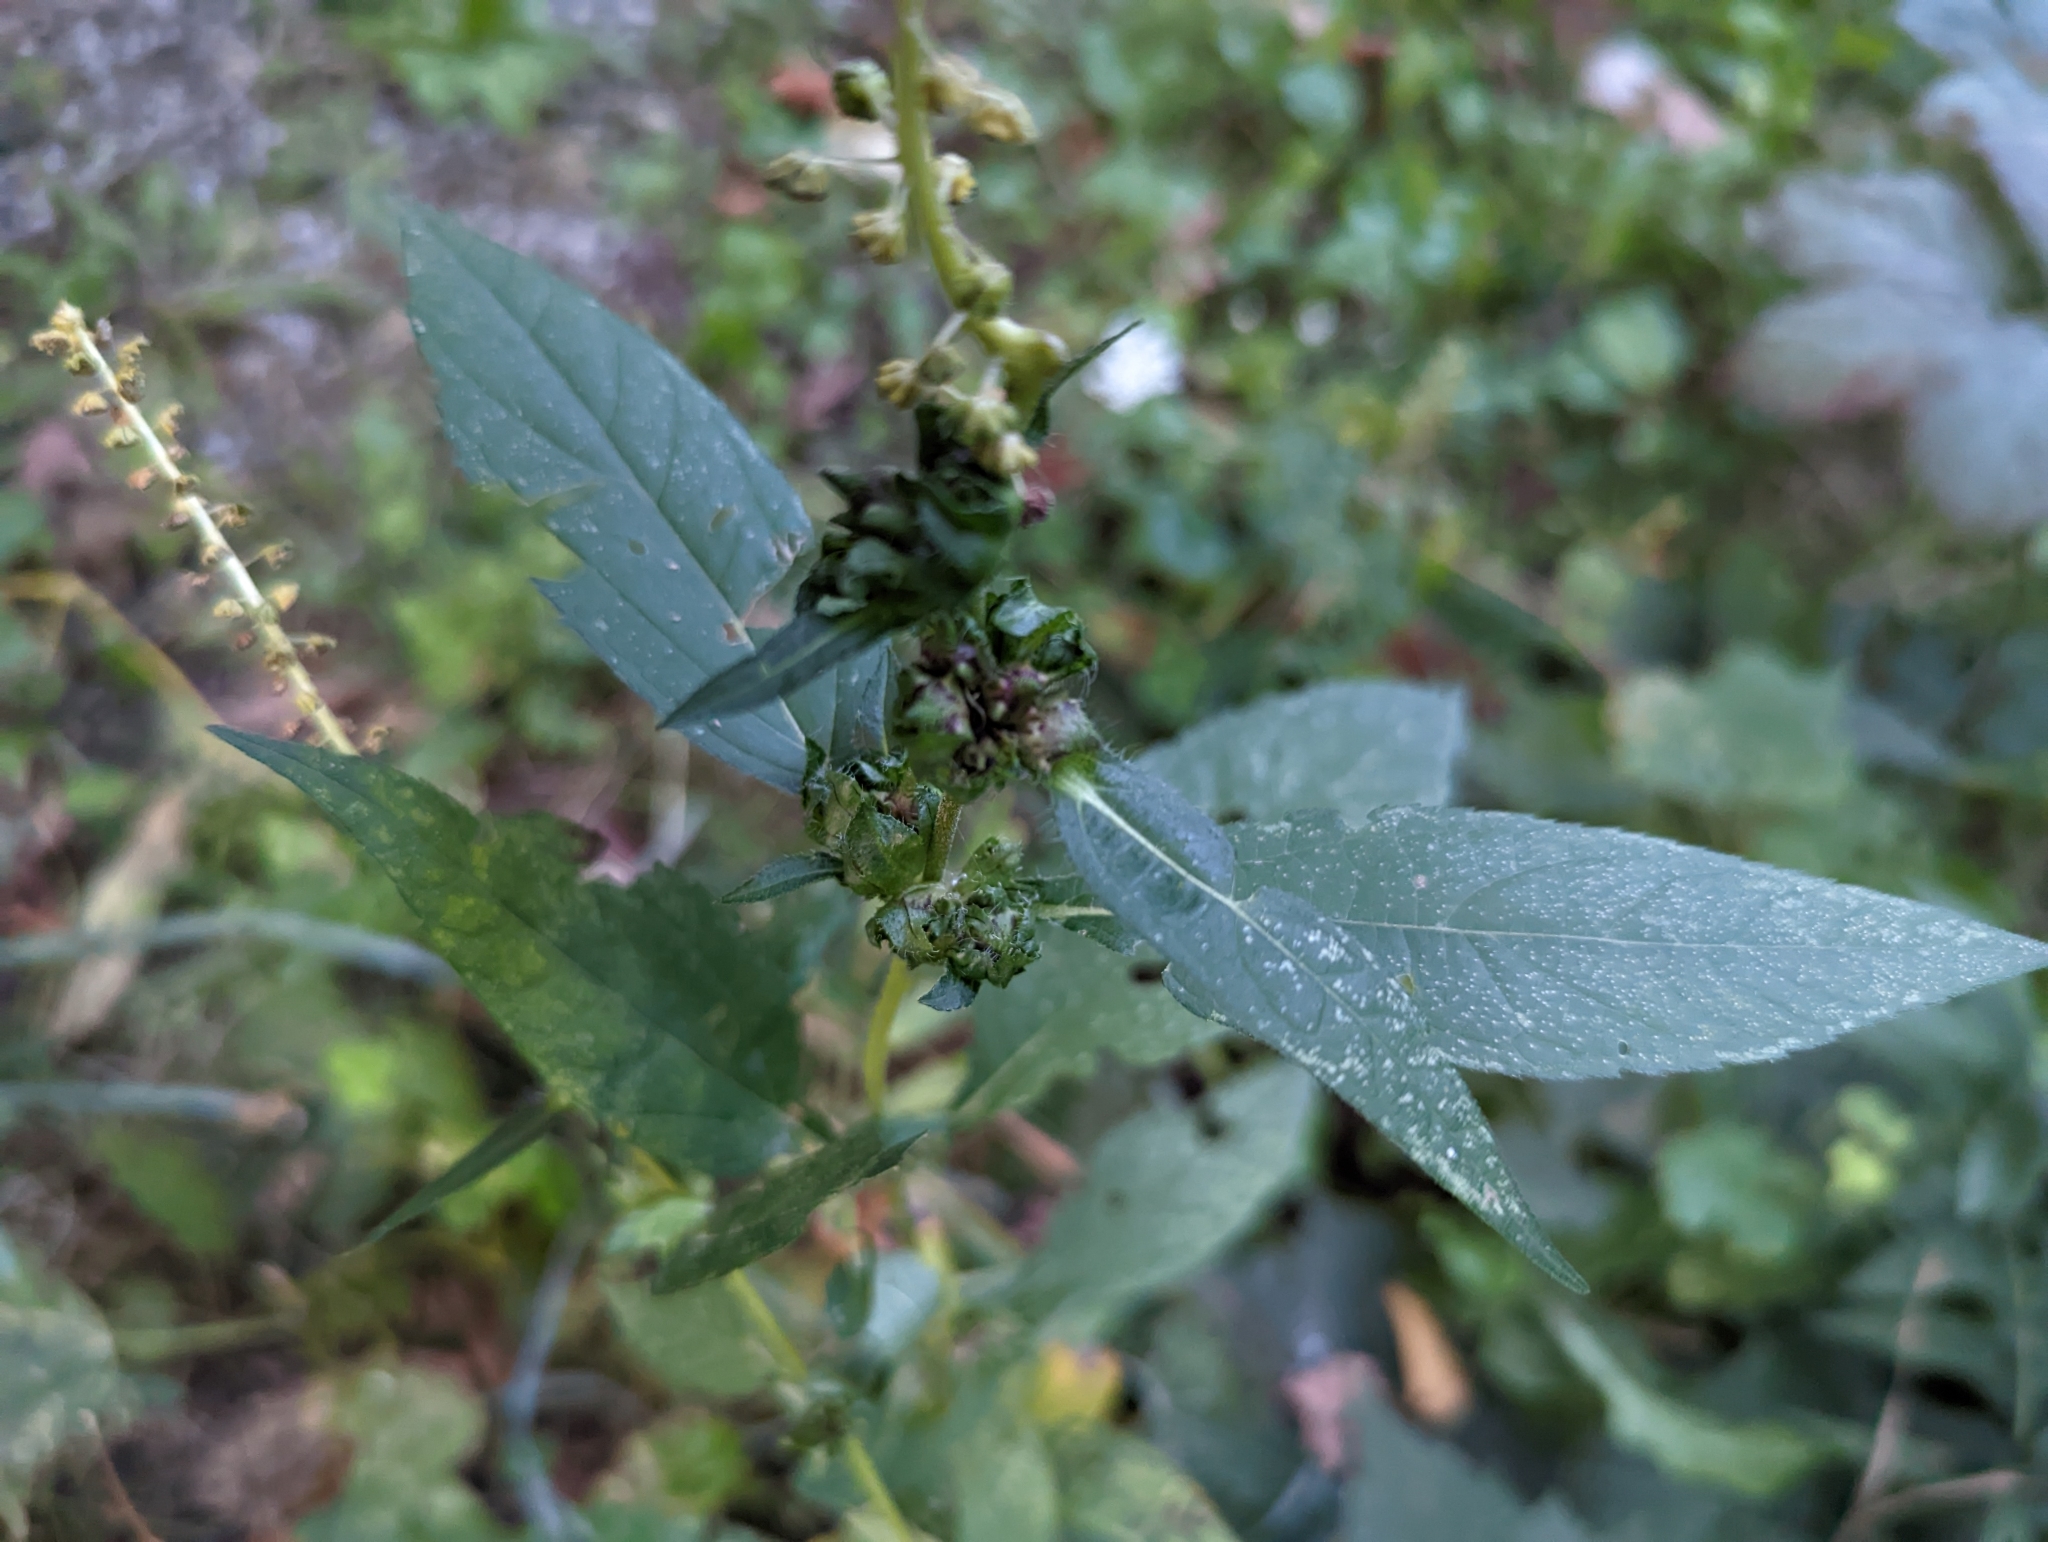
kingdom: Plantae
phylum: Tracheophyta
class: Magnoliopsida
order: Asterales
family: Asteraceae
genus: Ambrosia
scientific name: Ambrosia trifida
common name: Giant ragweed
